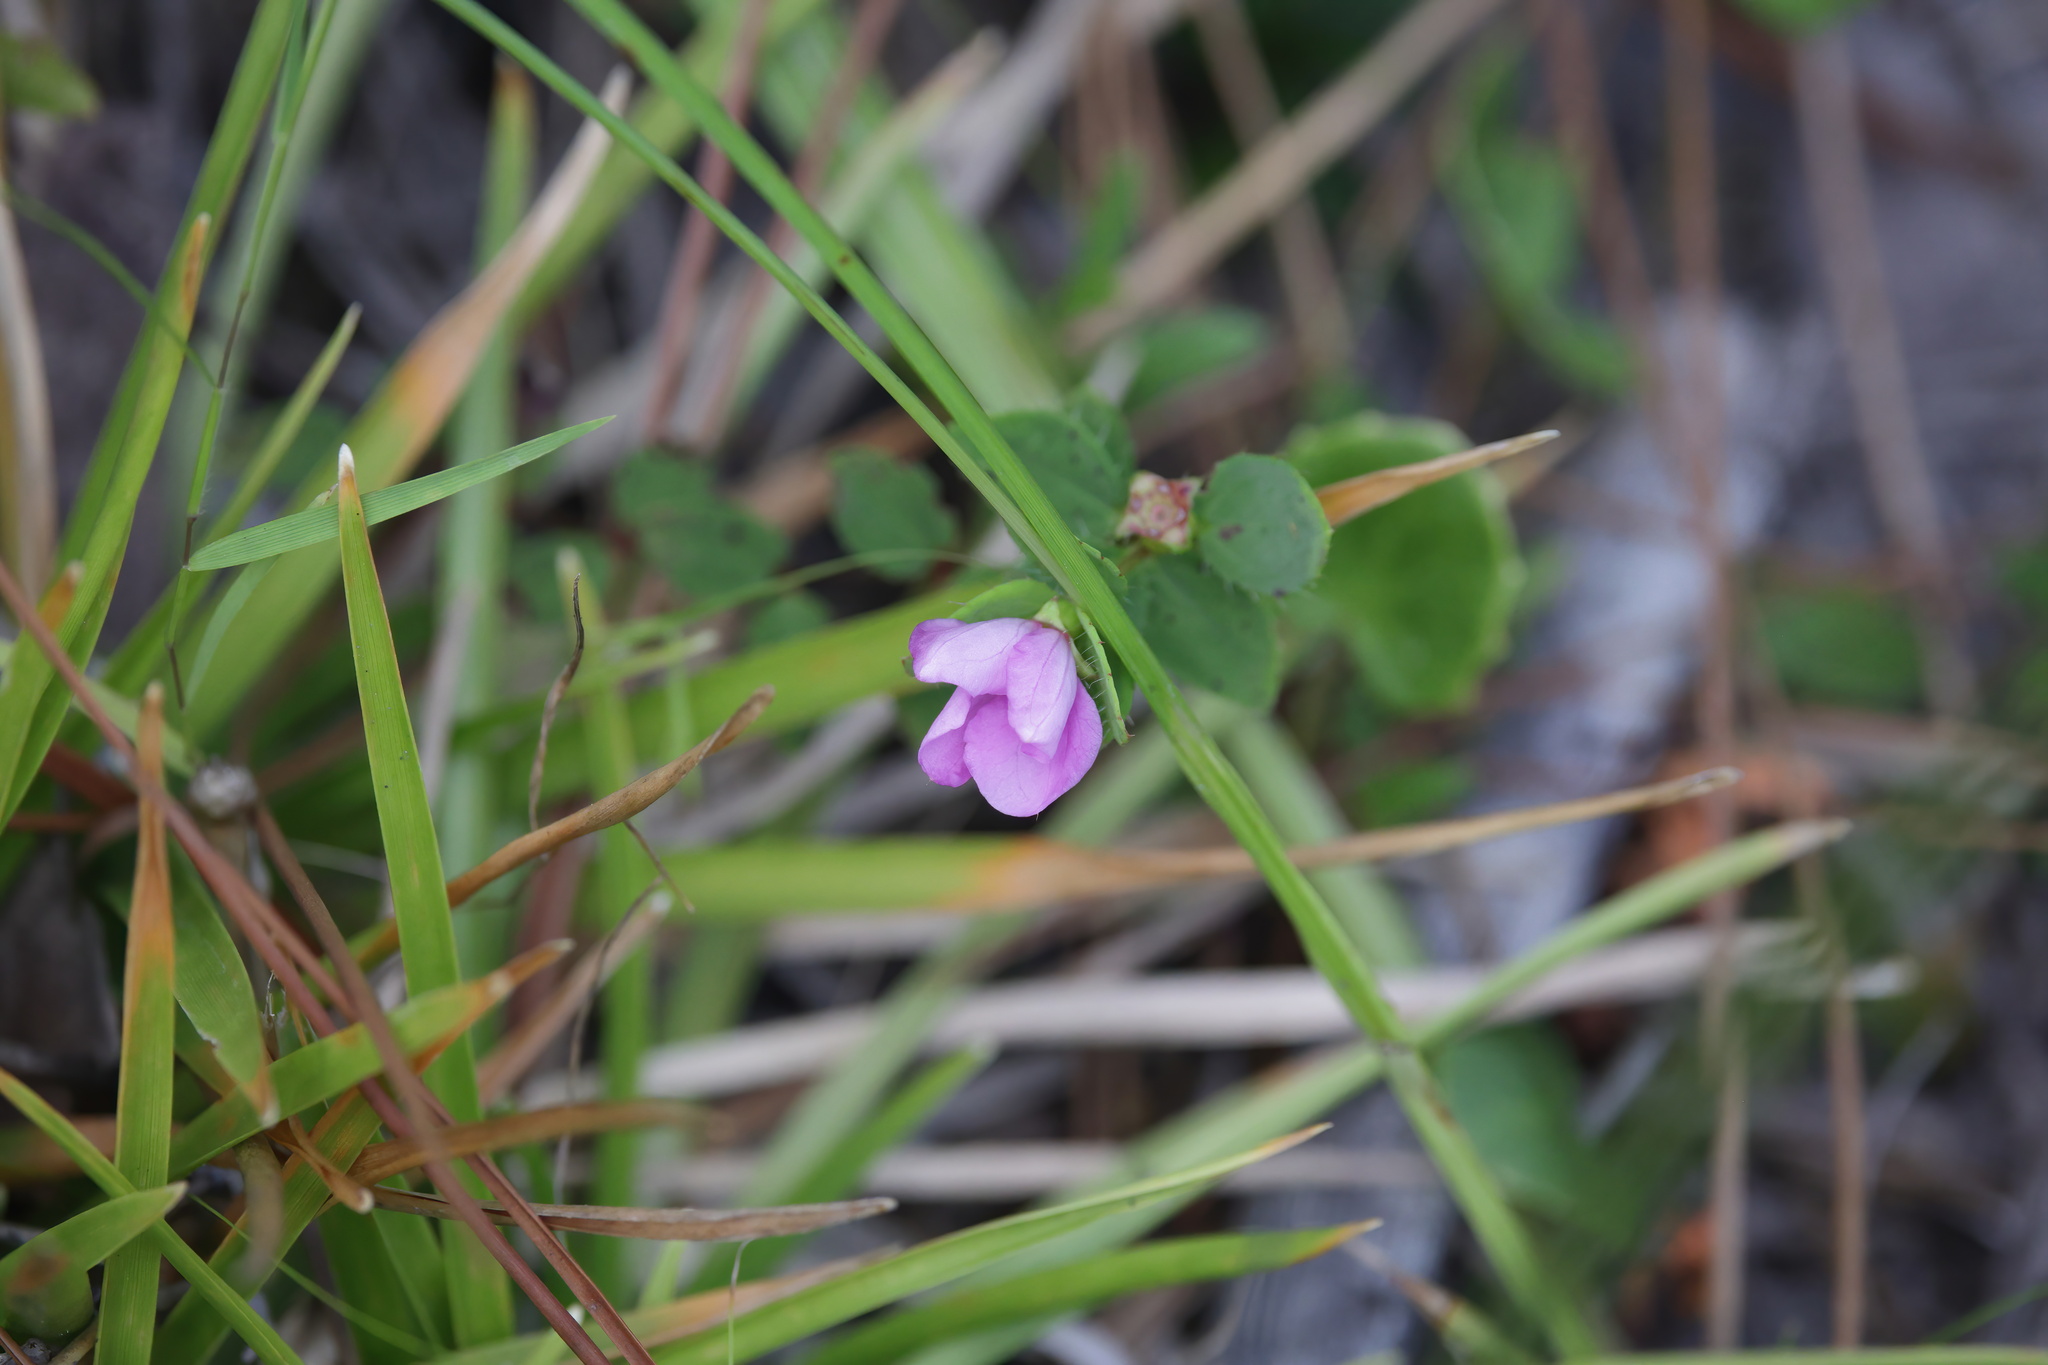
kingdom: Plantae
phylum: Tracheophyta
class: Magnoliopsida
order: Myrtales
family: Melastomataceae
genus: Rhexia
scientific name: Rhexia petiolata
